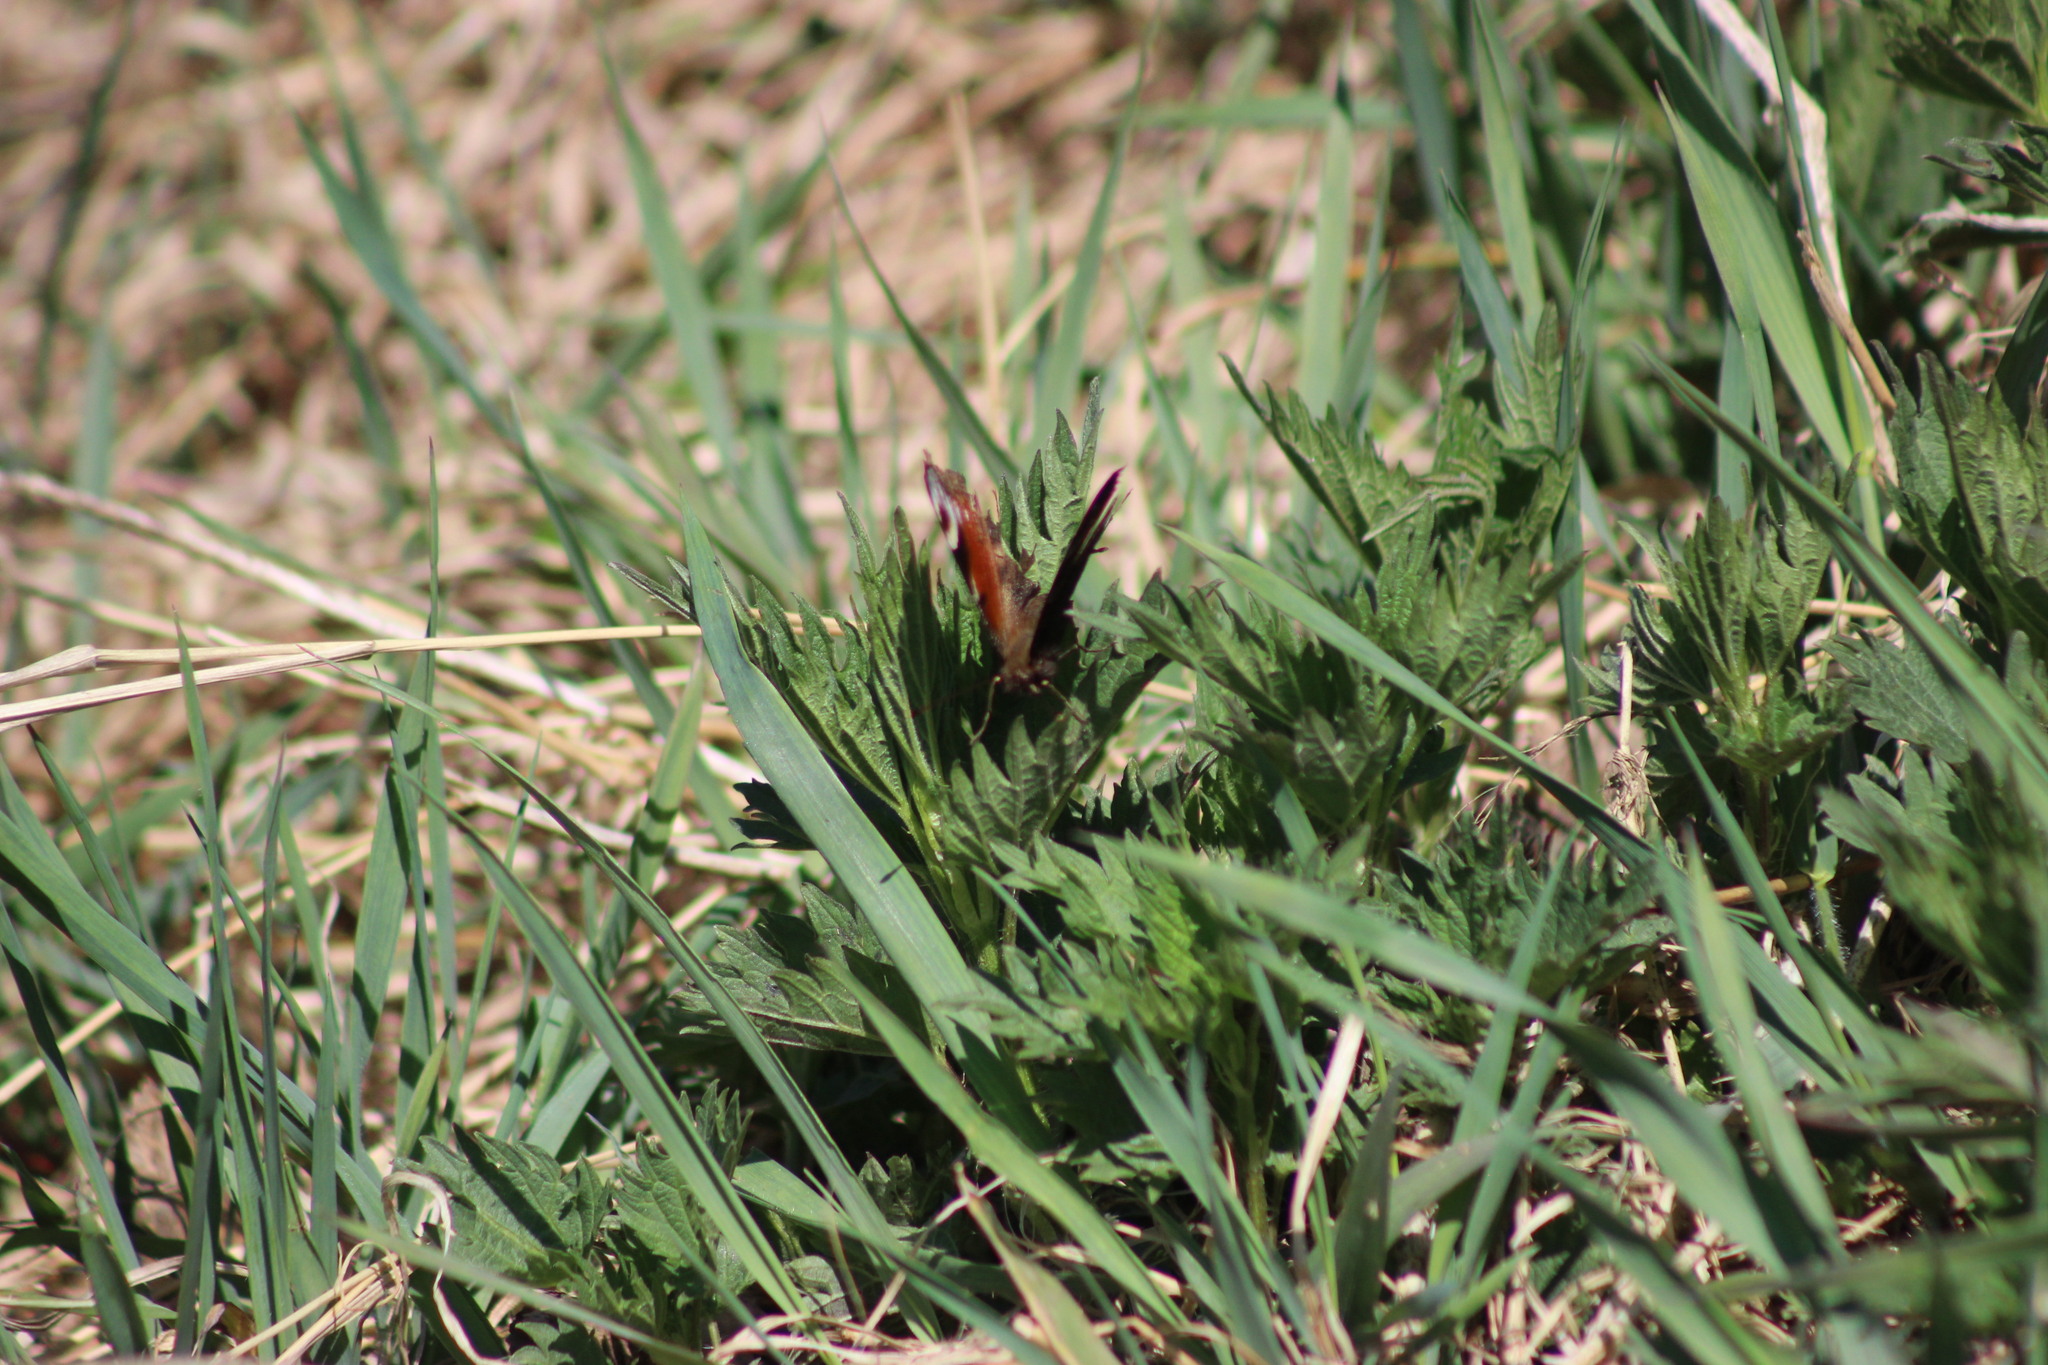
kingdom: Animalia
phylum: Arthropoda
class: Insecta
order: Lepidoptera
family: Nymphalidae
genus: Aglais
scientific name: Aglais io
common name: Peacock
